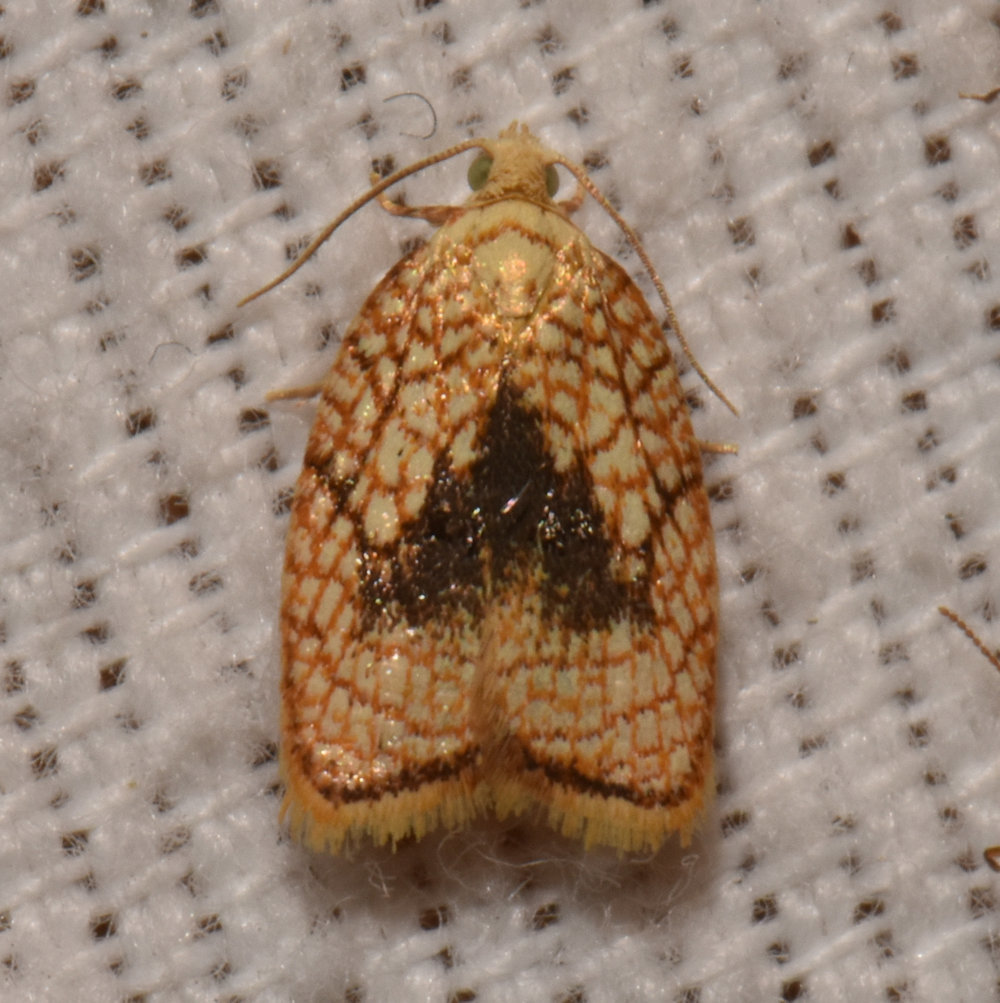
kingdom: Animalia
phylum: Arthropoda
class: Insecta
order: Lepidoptera
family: Tortricidae
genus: Acleris
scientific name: Acleris forsskaleana
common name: Maple button
